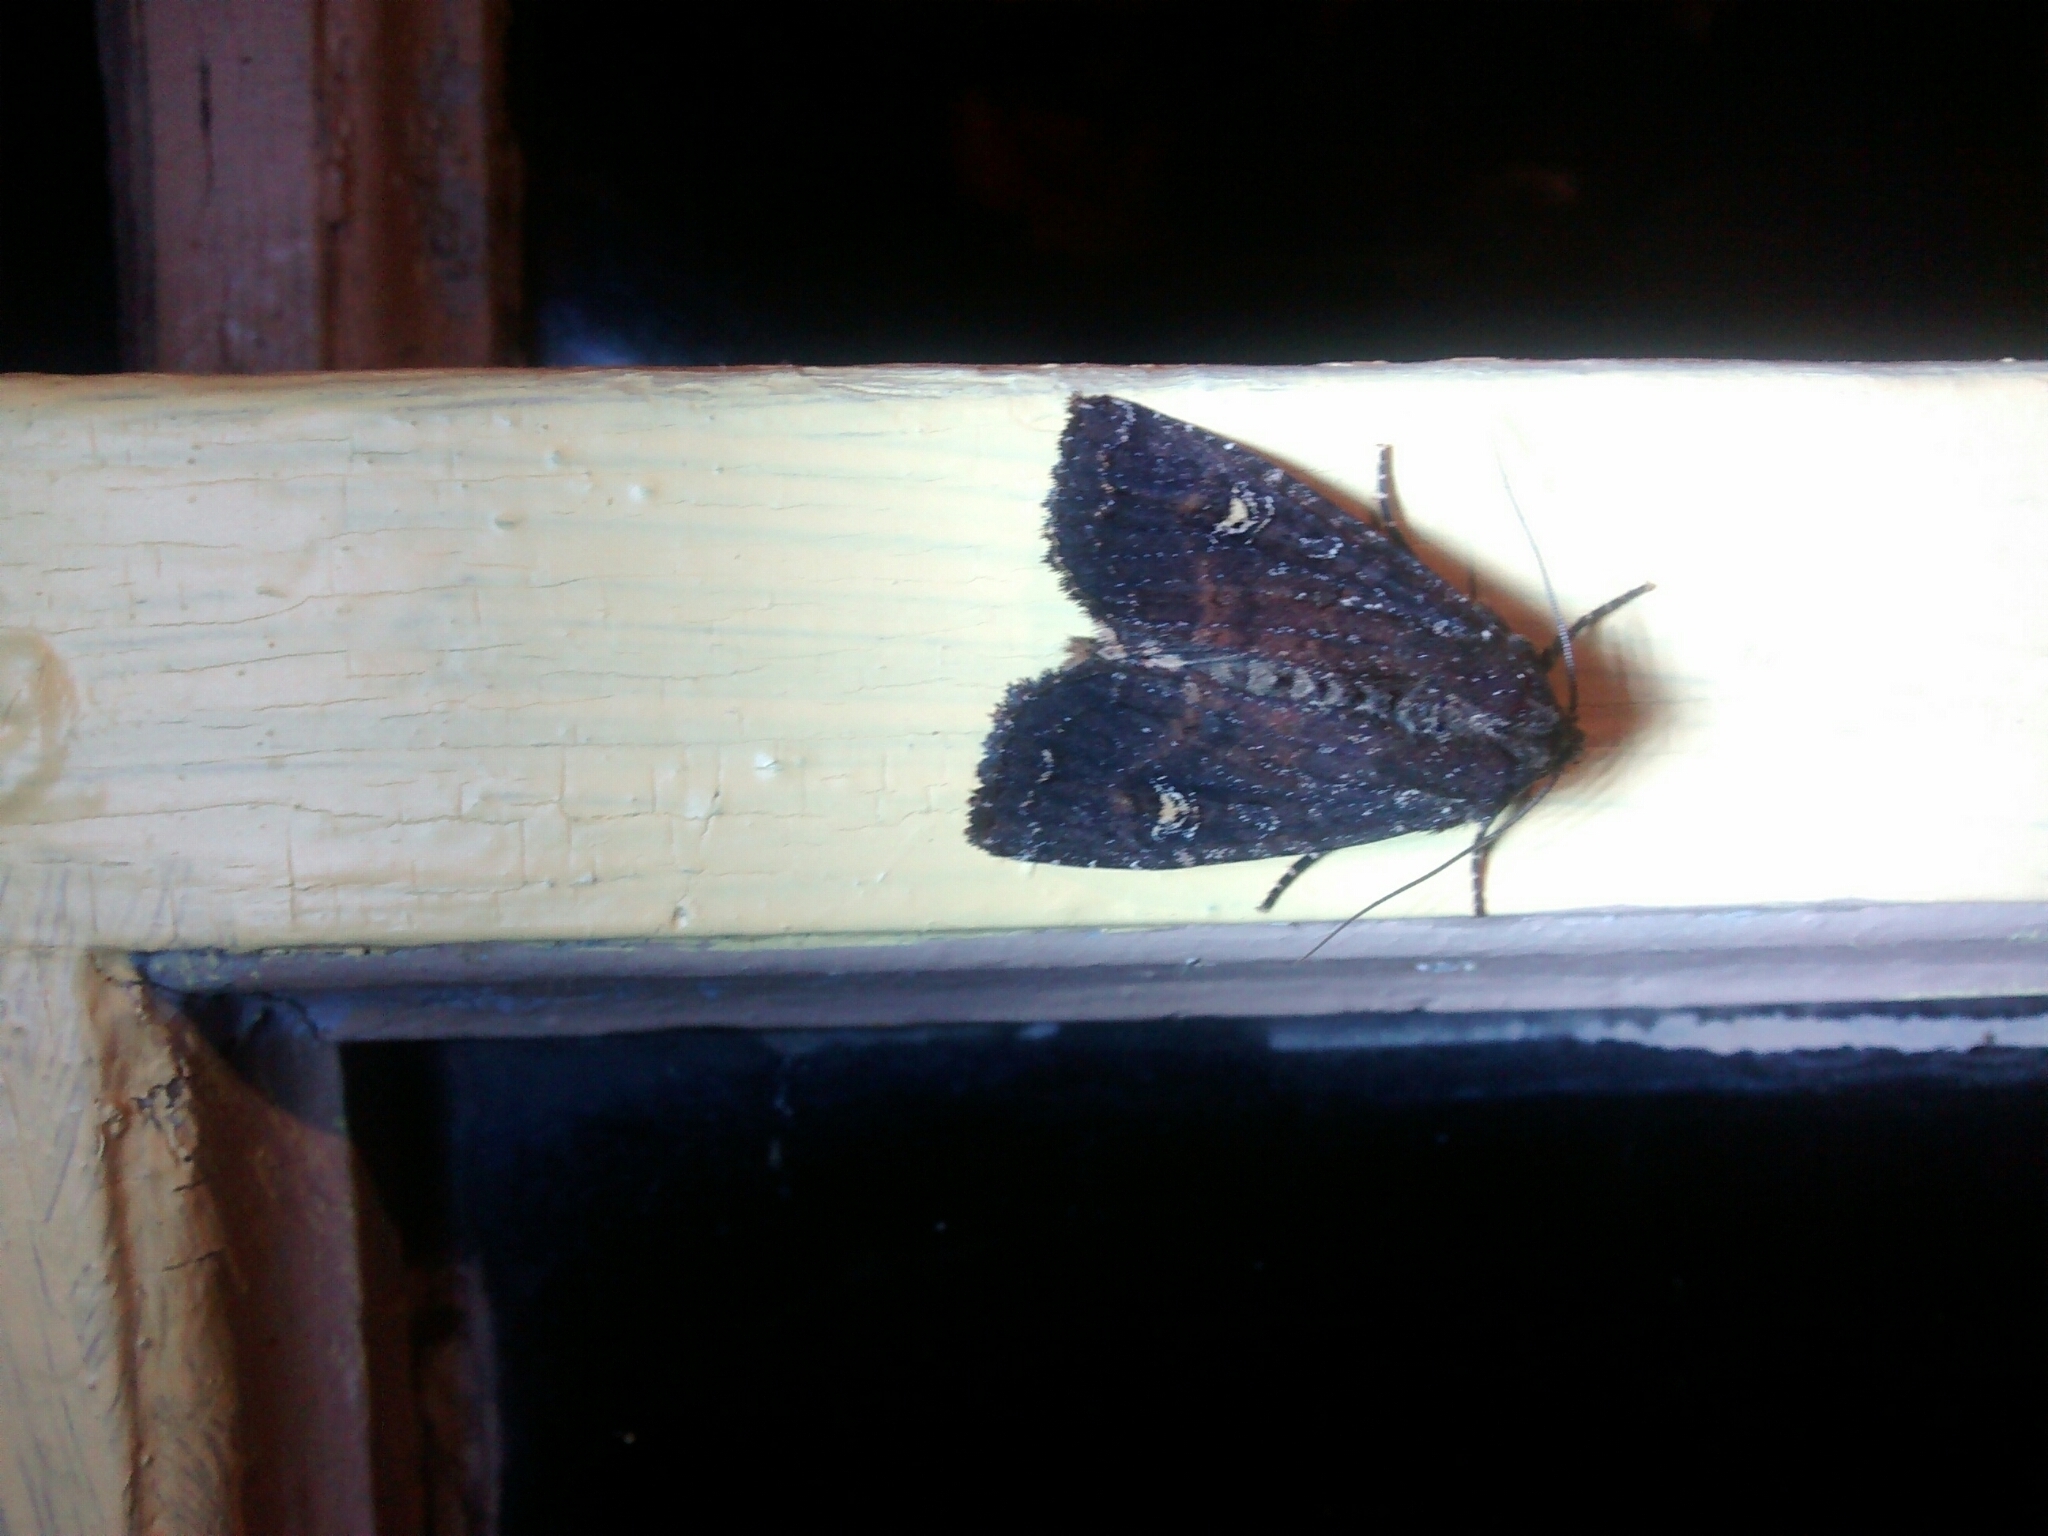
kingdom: Animalia
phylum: Arthropoda
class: Insecta
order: Lepidoptera
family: Noctuidae
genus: Apamea
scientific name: Apamea dubitans
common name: Doubtful apamea moth
